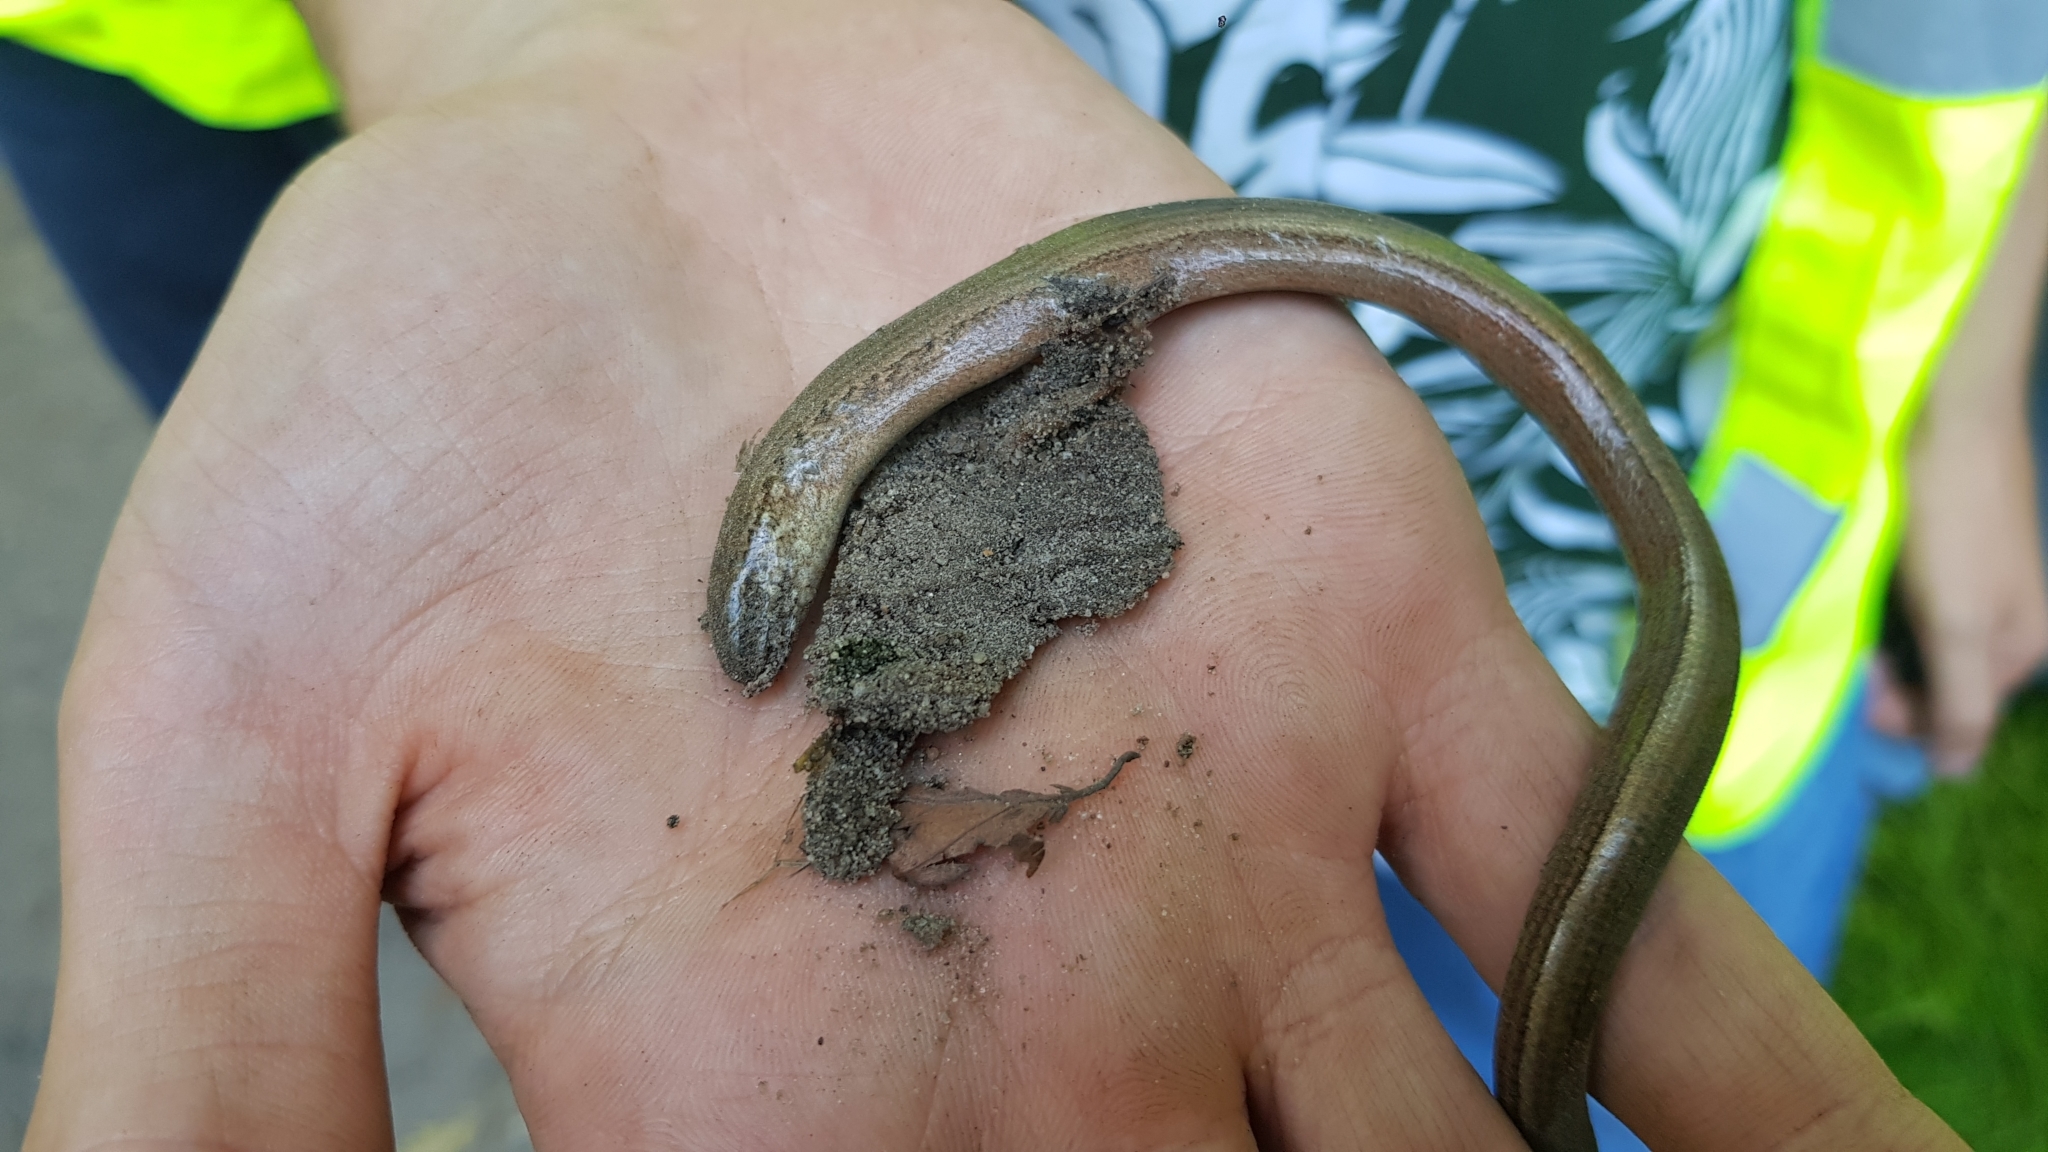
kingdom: Animalia
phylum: Chordata
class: Squamata
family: Anguidae
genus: Anguis
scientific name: Anguis fragilis
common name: Slow worm
